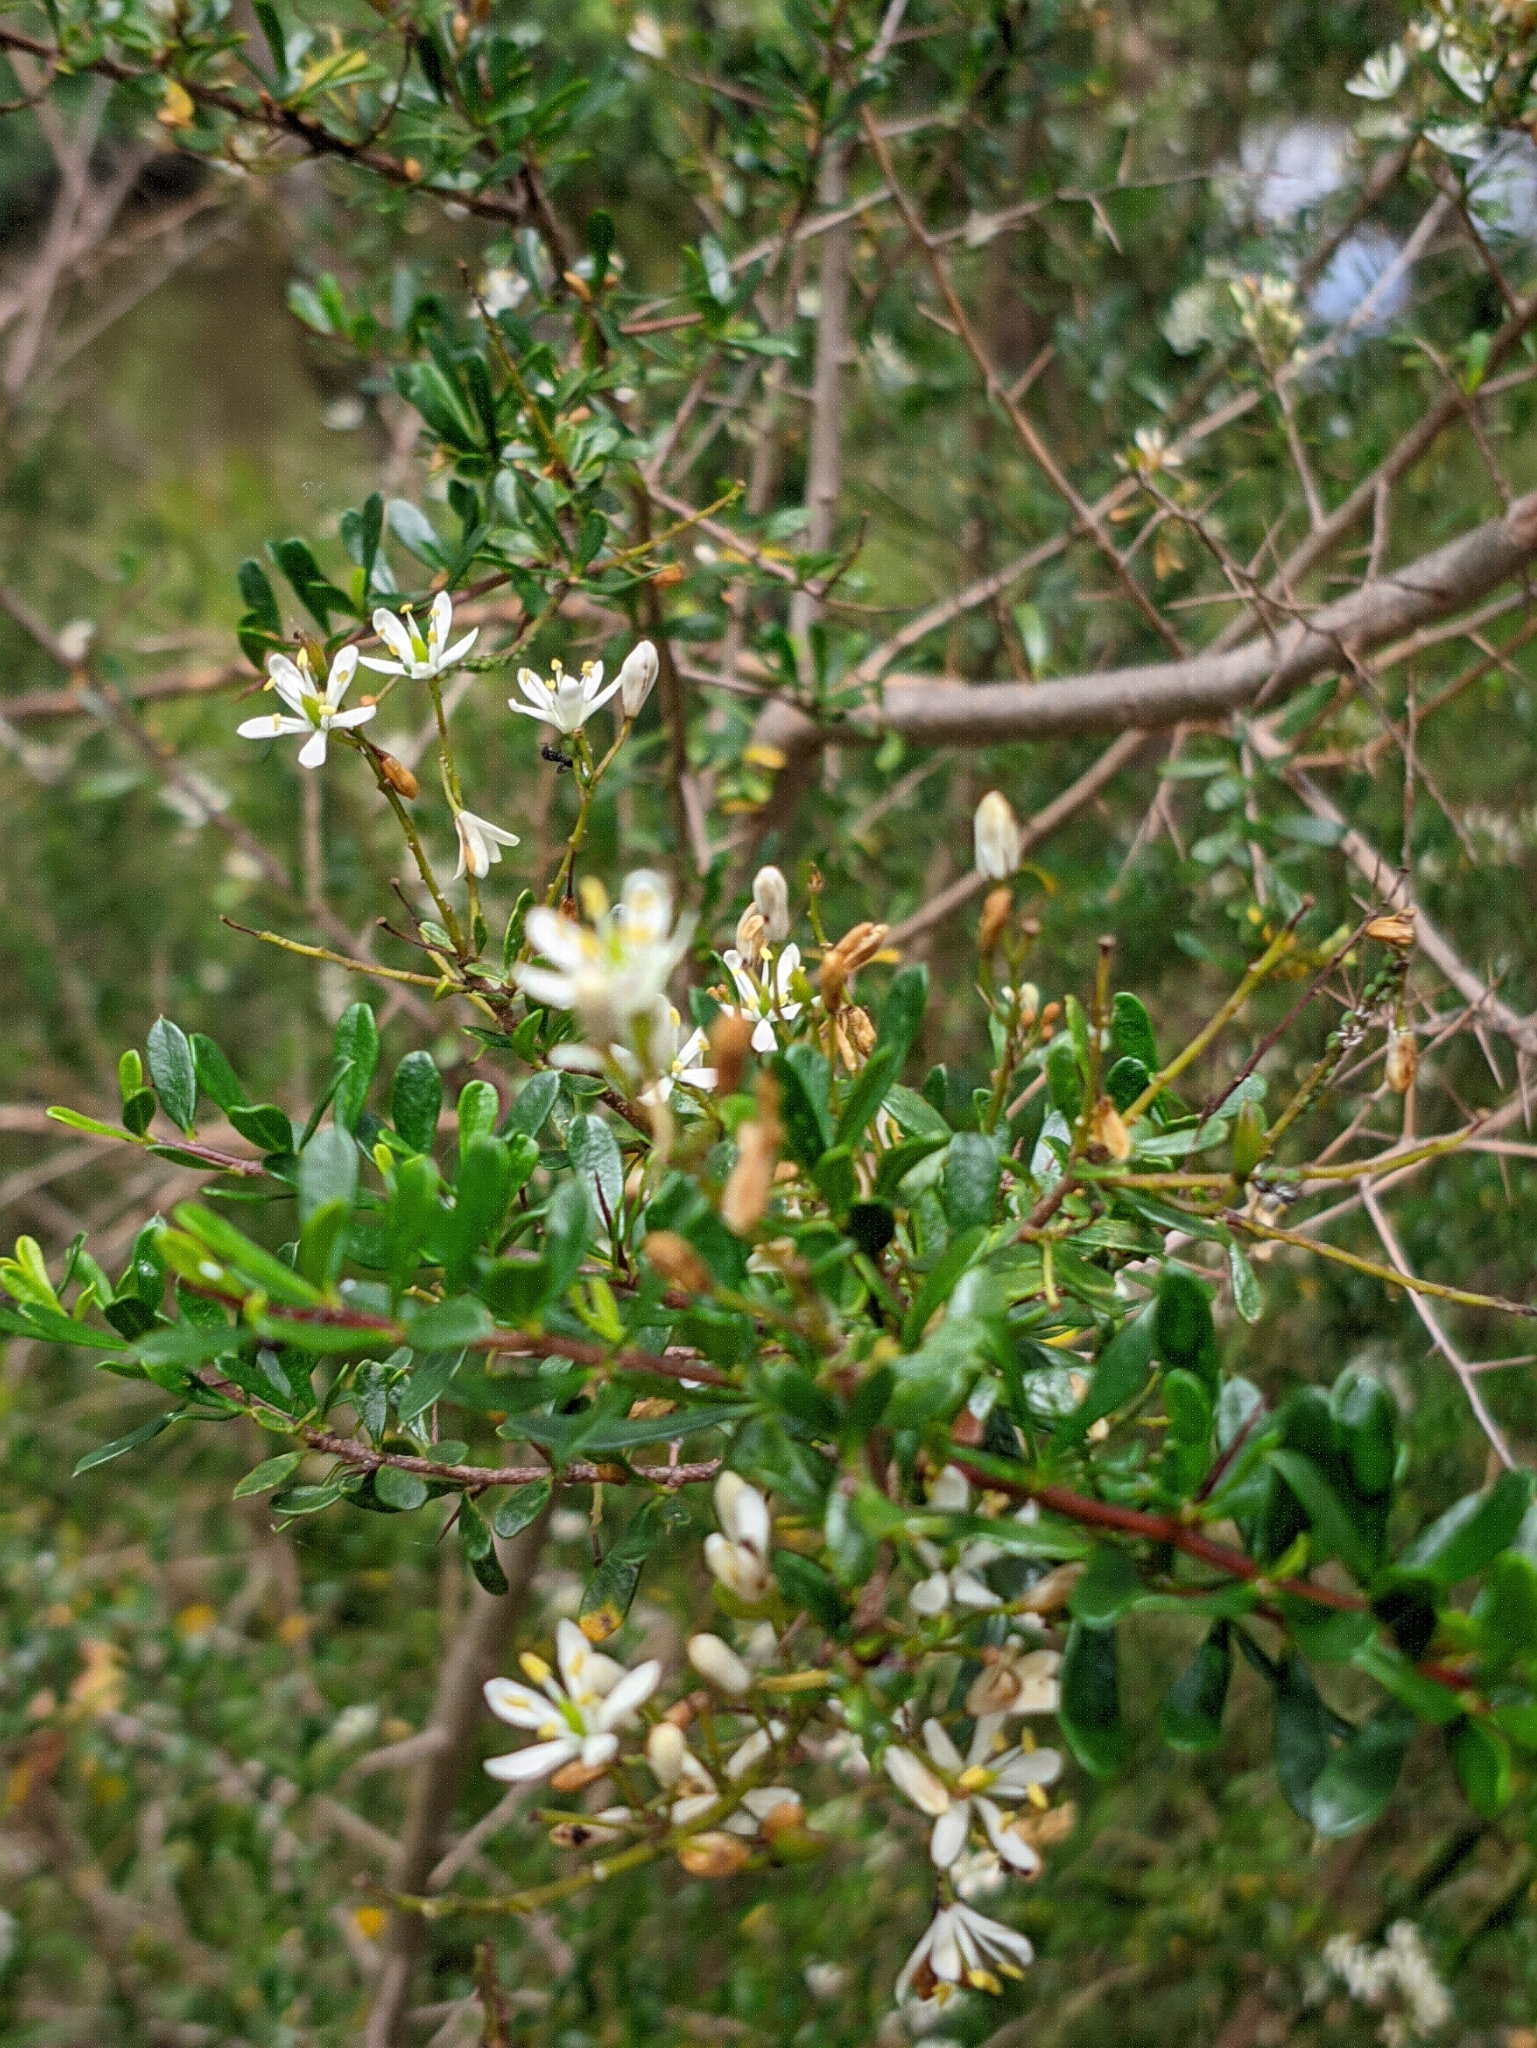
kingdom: Plantae
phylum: Tracheophyta
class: Magnoliopsida
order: Apiales
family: Pittosporaceae
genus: Bursaria
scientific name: Bursaria spinosa
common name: Australian blackthorn
